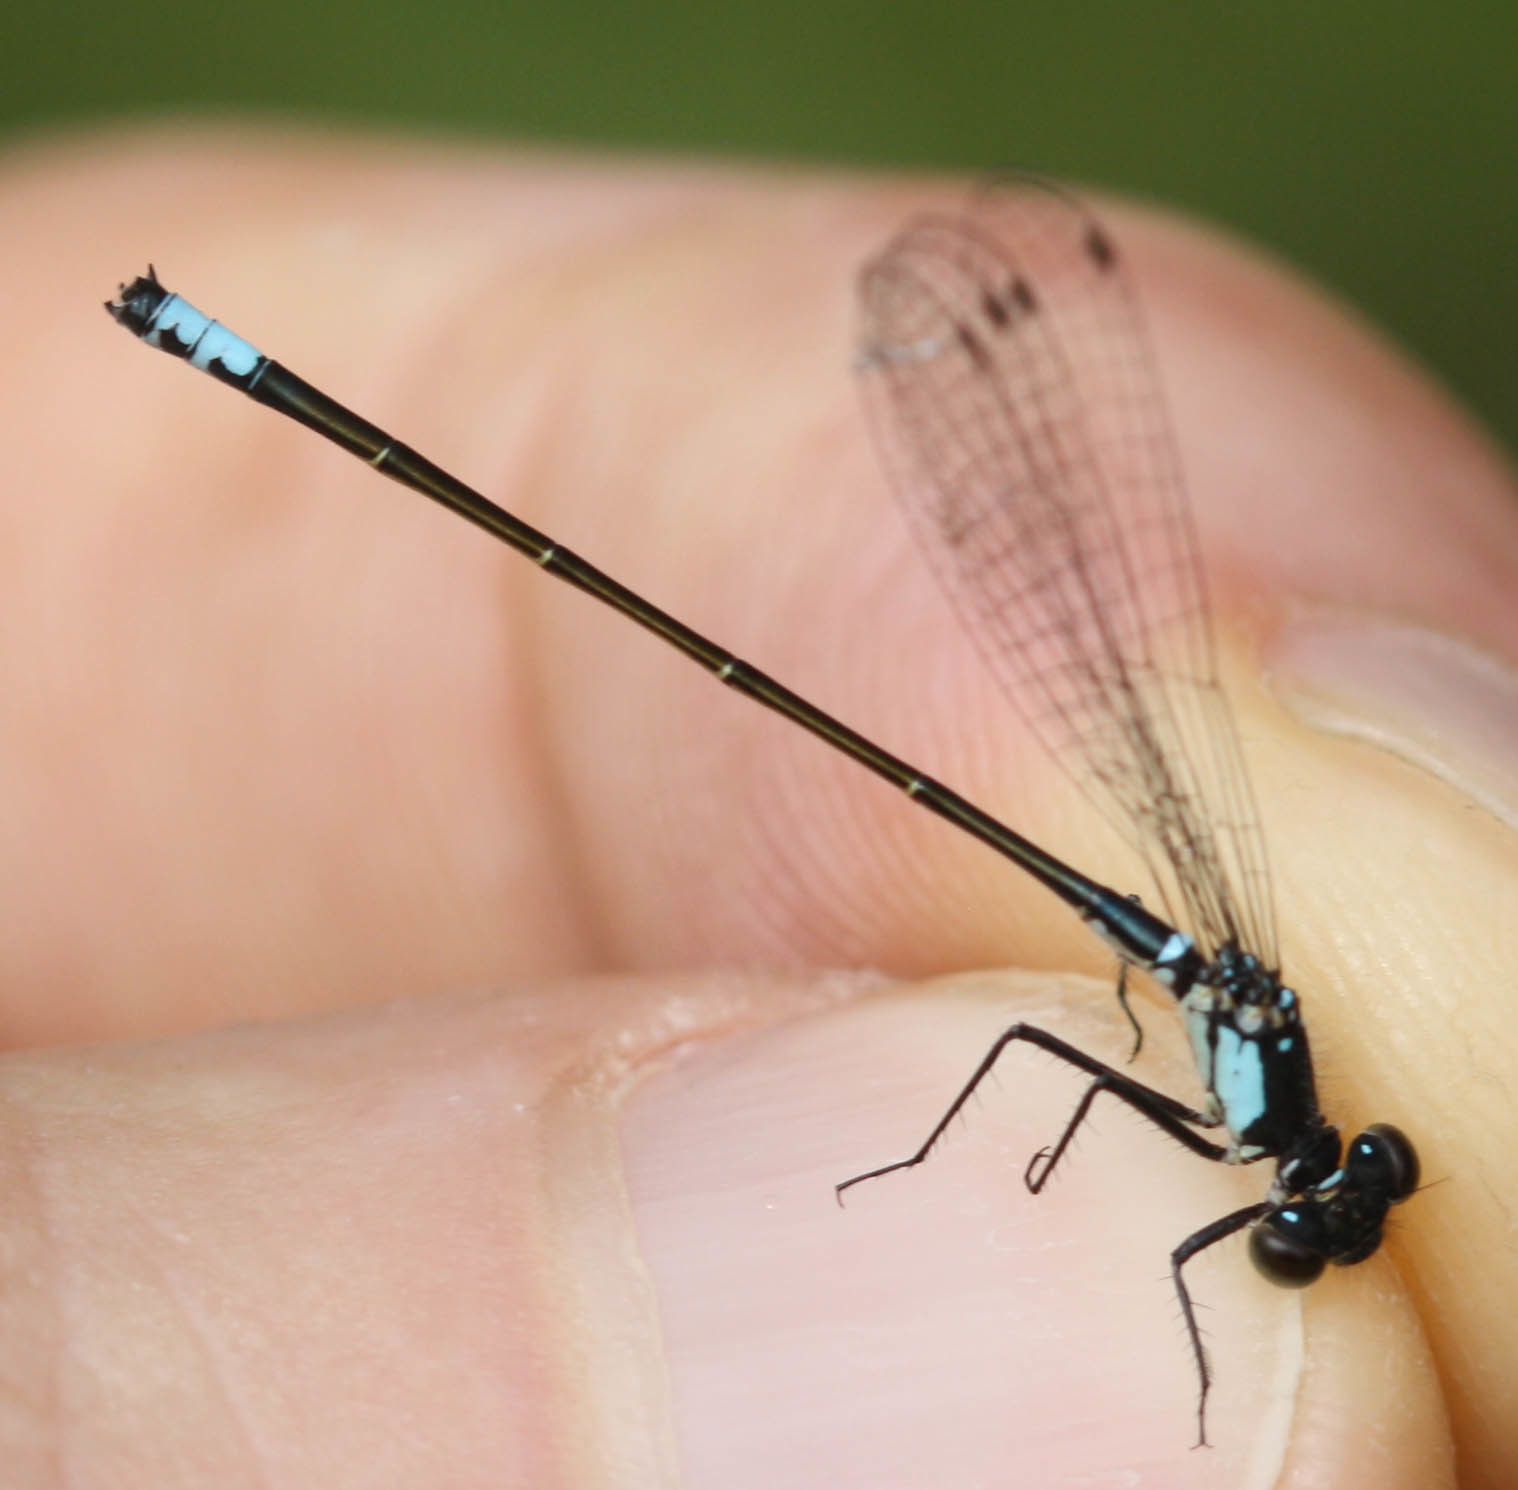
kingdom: Animalia
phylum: Arthropoda
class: Insecta
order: Odonata
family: Coenagrionidae
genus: Ischnura
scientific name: Ischnura cervula
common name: Pacific forktail
